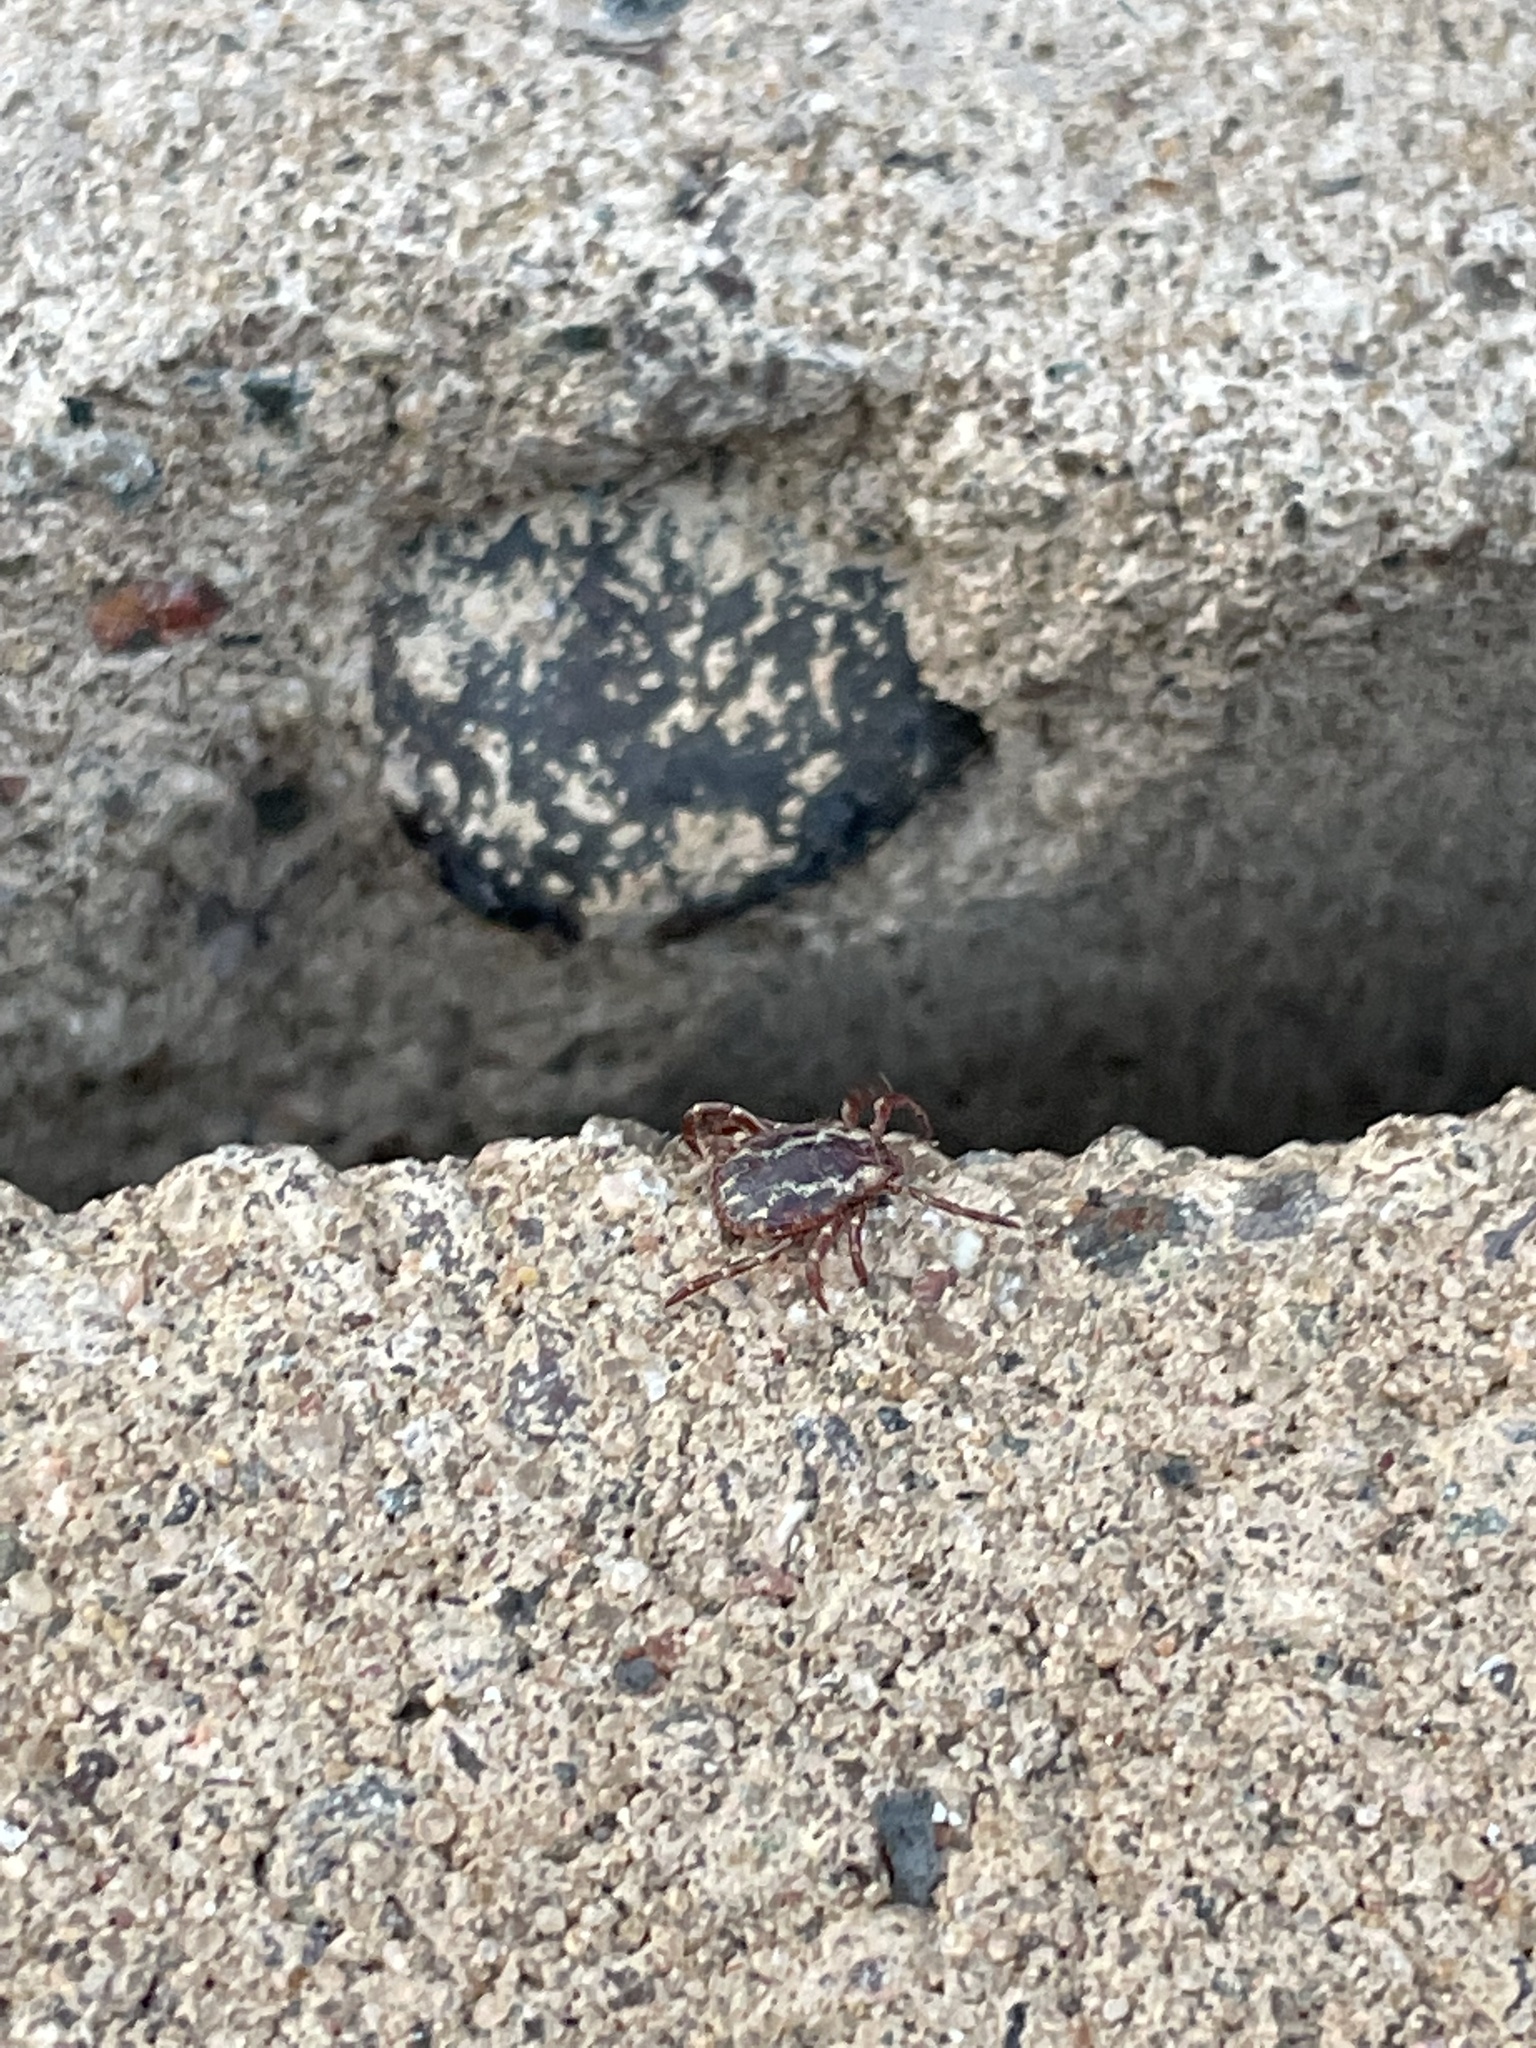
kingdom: Animalia
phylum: Arthropoda
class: Arachnida
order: Ixodida
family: Ixodidae
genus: Dermacentor
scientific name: Dermacentor variabilis
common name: American dog tick
